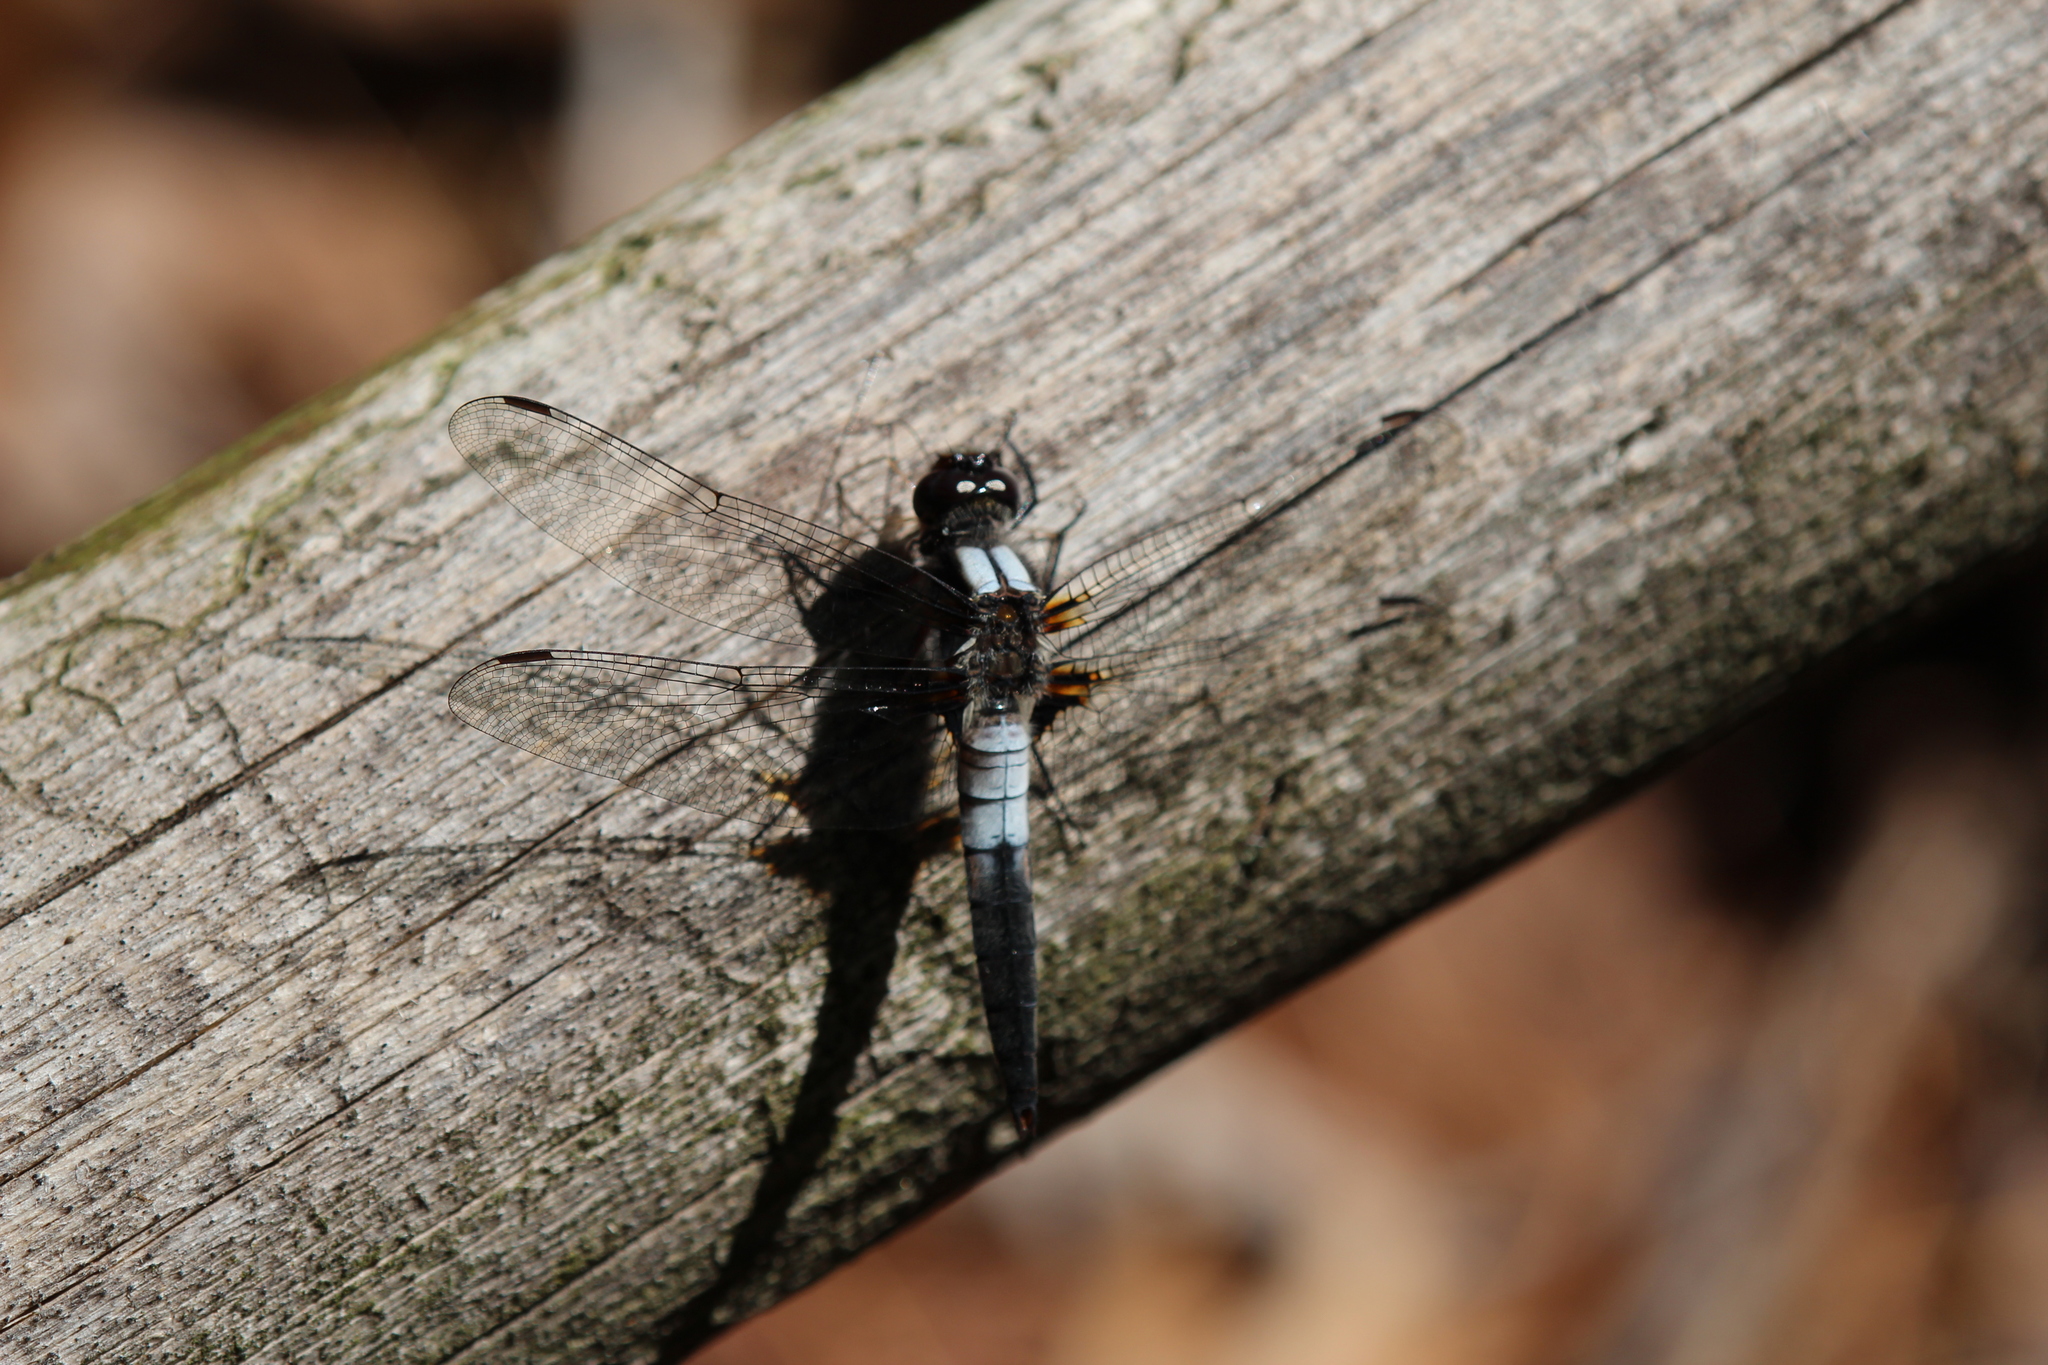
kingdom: Animalia
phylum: Arthropoda
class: Insecta
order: Odonata
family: Libellulidae
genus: Ladona
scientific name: Ladona julia
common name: Chalk-fronted corporal
